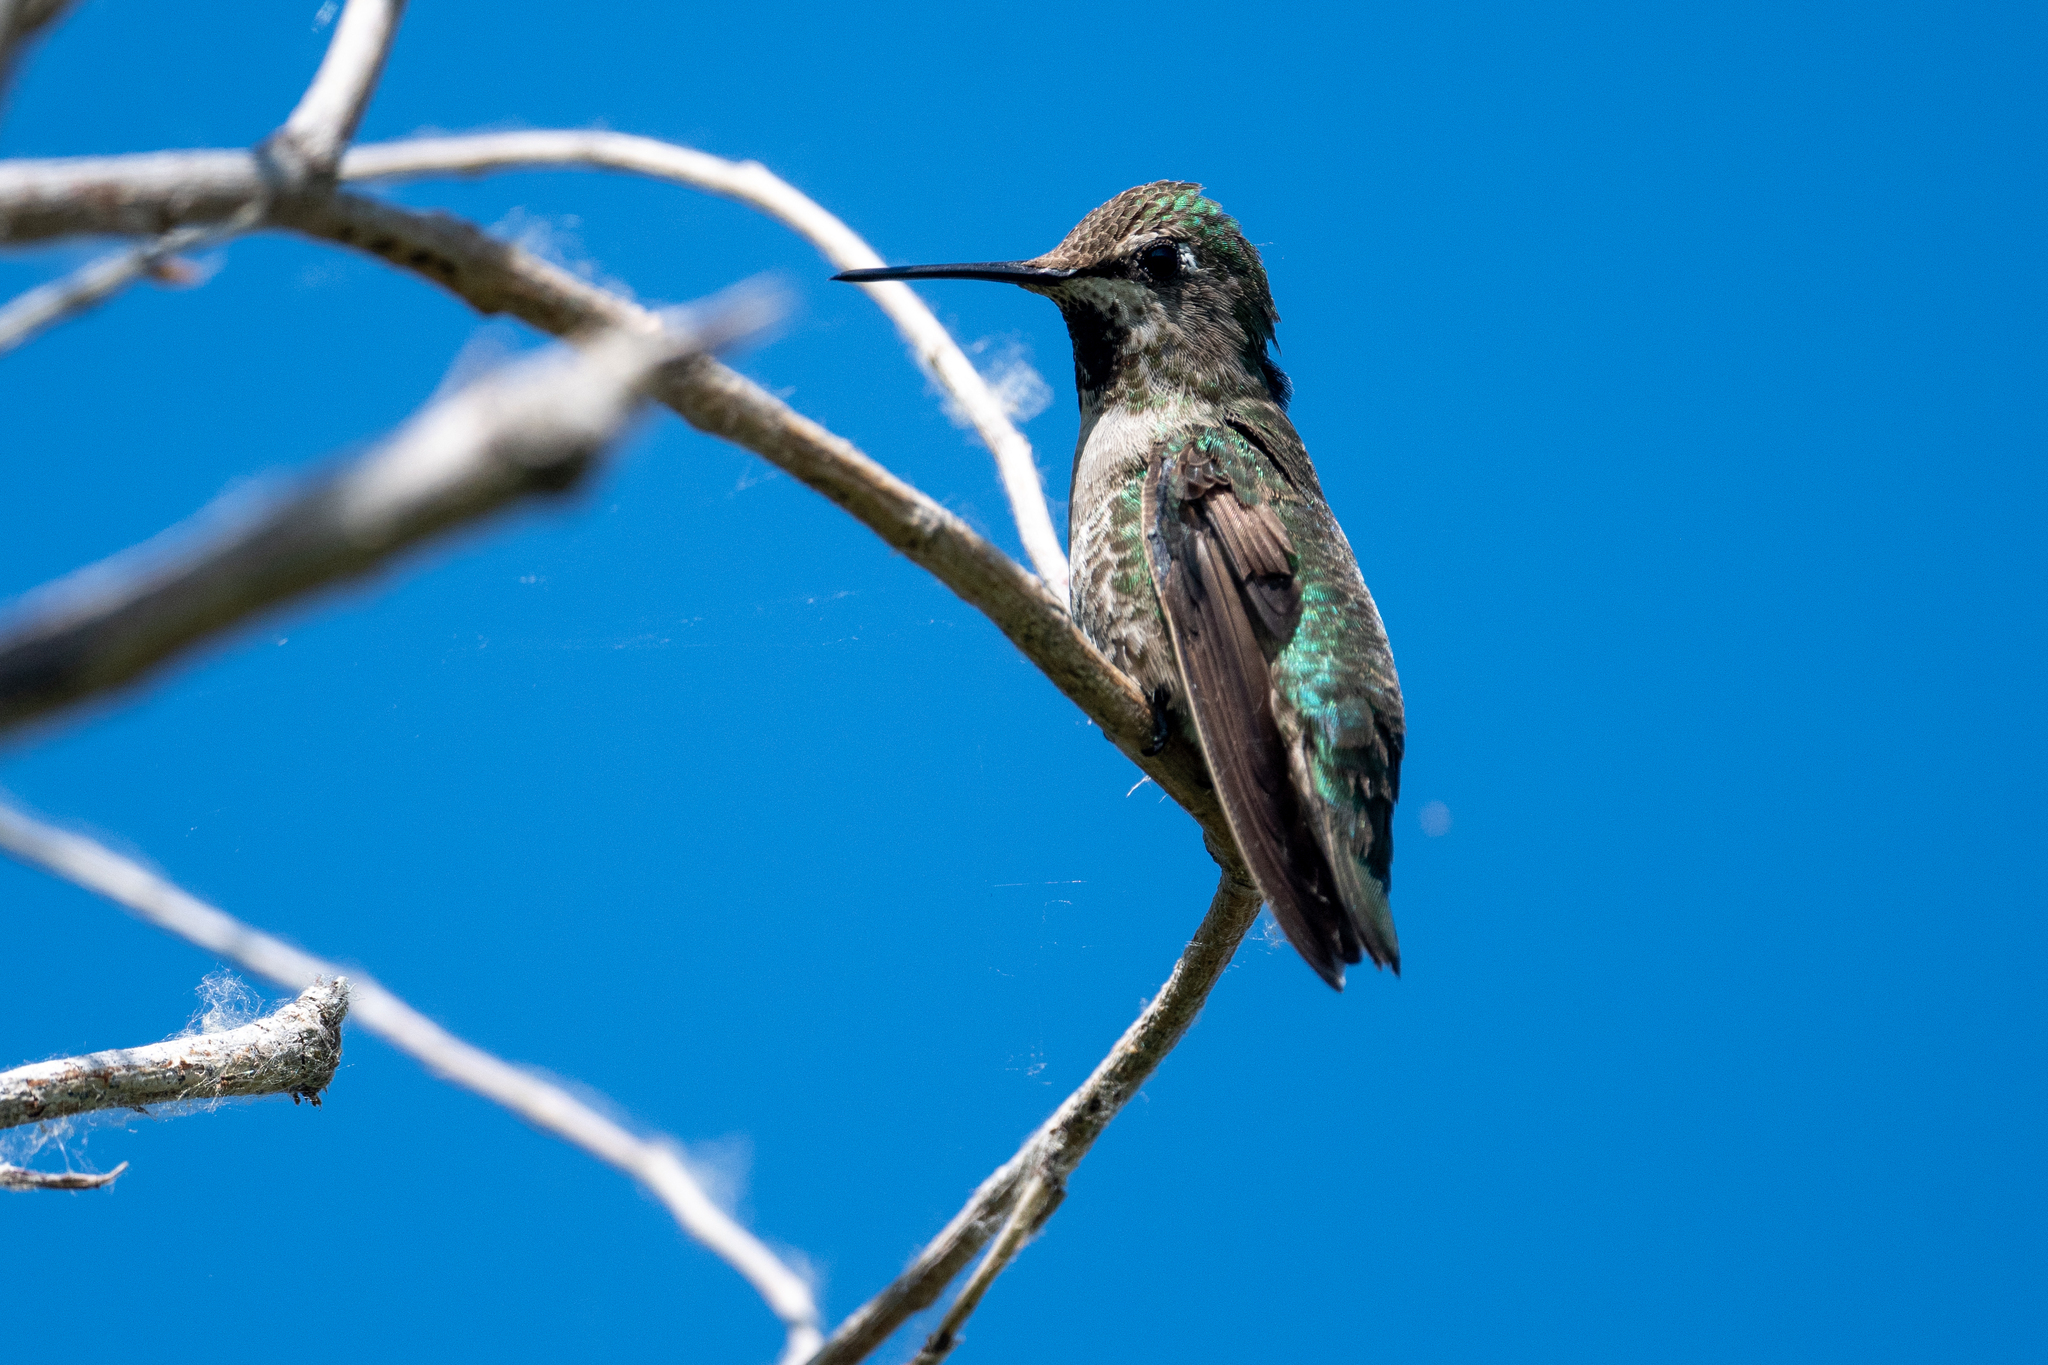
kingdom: Animalia
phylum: Chordata
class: Aves
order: Apodiformes
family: Trochilidae
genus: Calypte
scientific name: Calypte anna
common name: Anna's hummingbird
